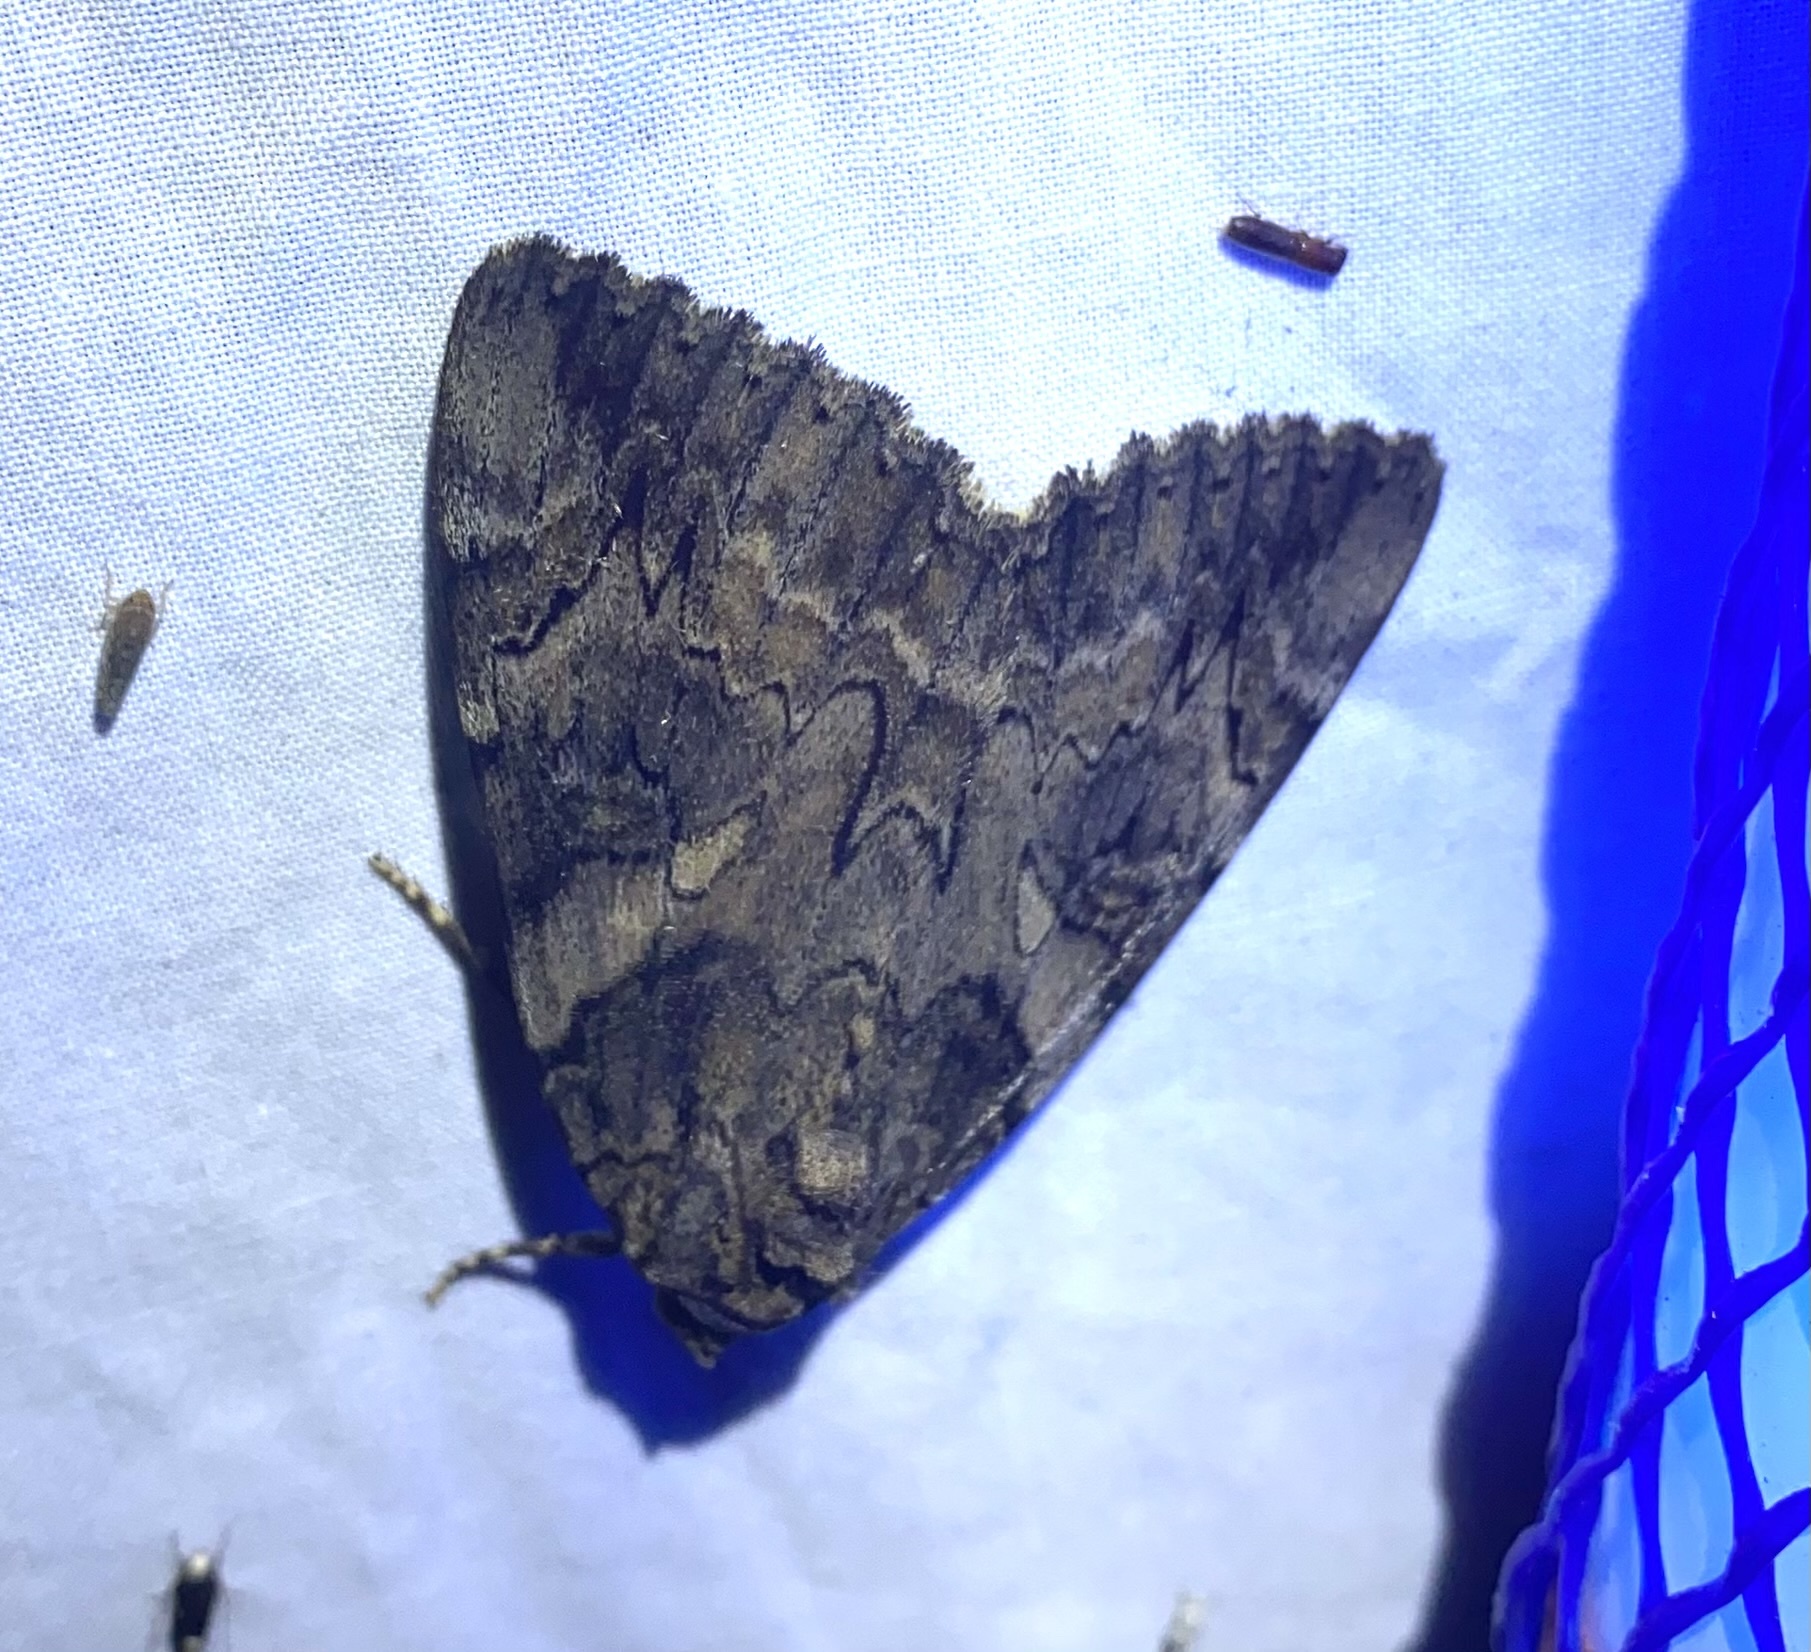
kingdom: Animalia
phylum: Arthropoda
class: Insecta
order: Lepidoptera
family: Erebidae
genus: Catocala
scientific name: Catocala piatrix
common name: The penitent underwing
